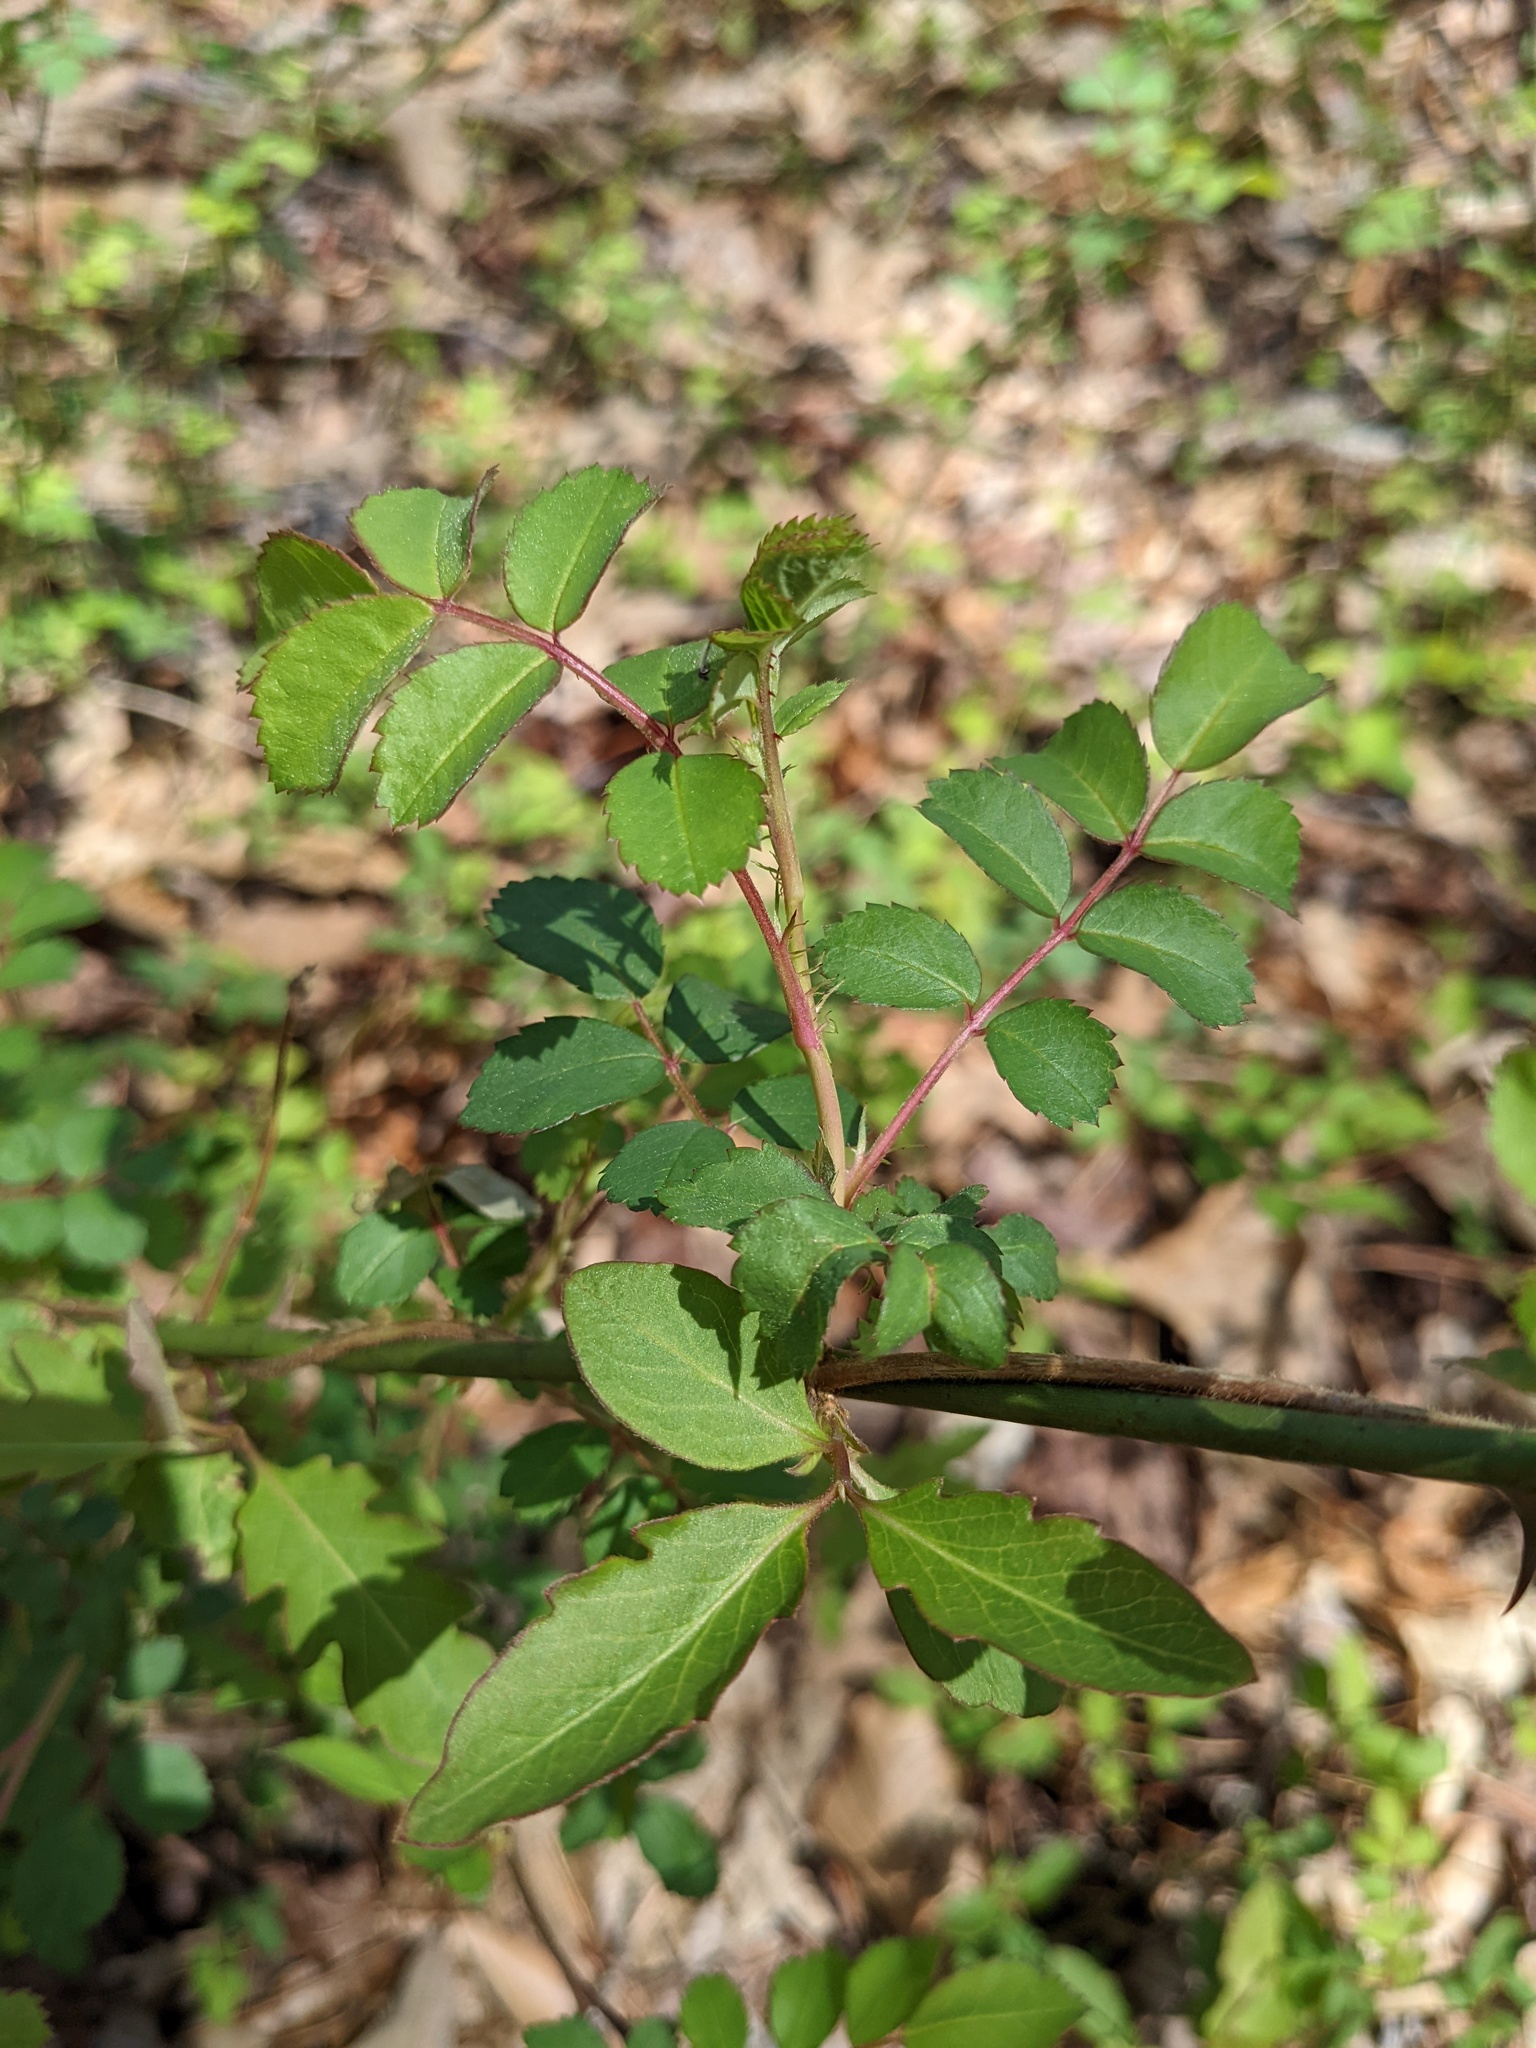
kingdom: Plantae
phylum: Tracheophyta
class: Magnoliopsida
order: Rosales
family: Rosaceae
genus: Rosa
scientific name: Rosa multiflora
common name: Multiflora rose
